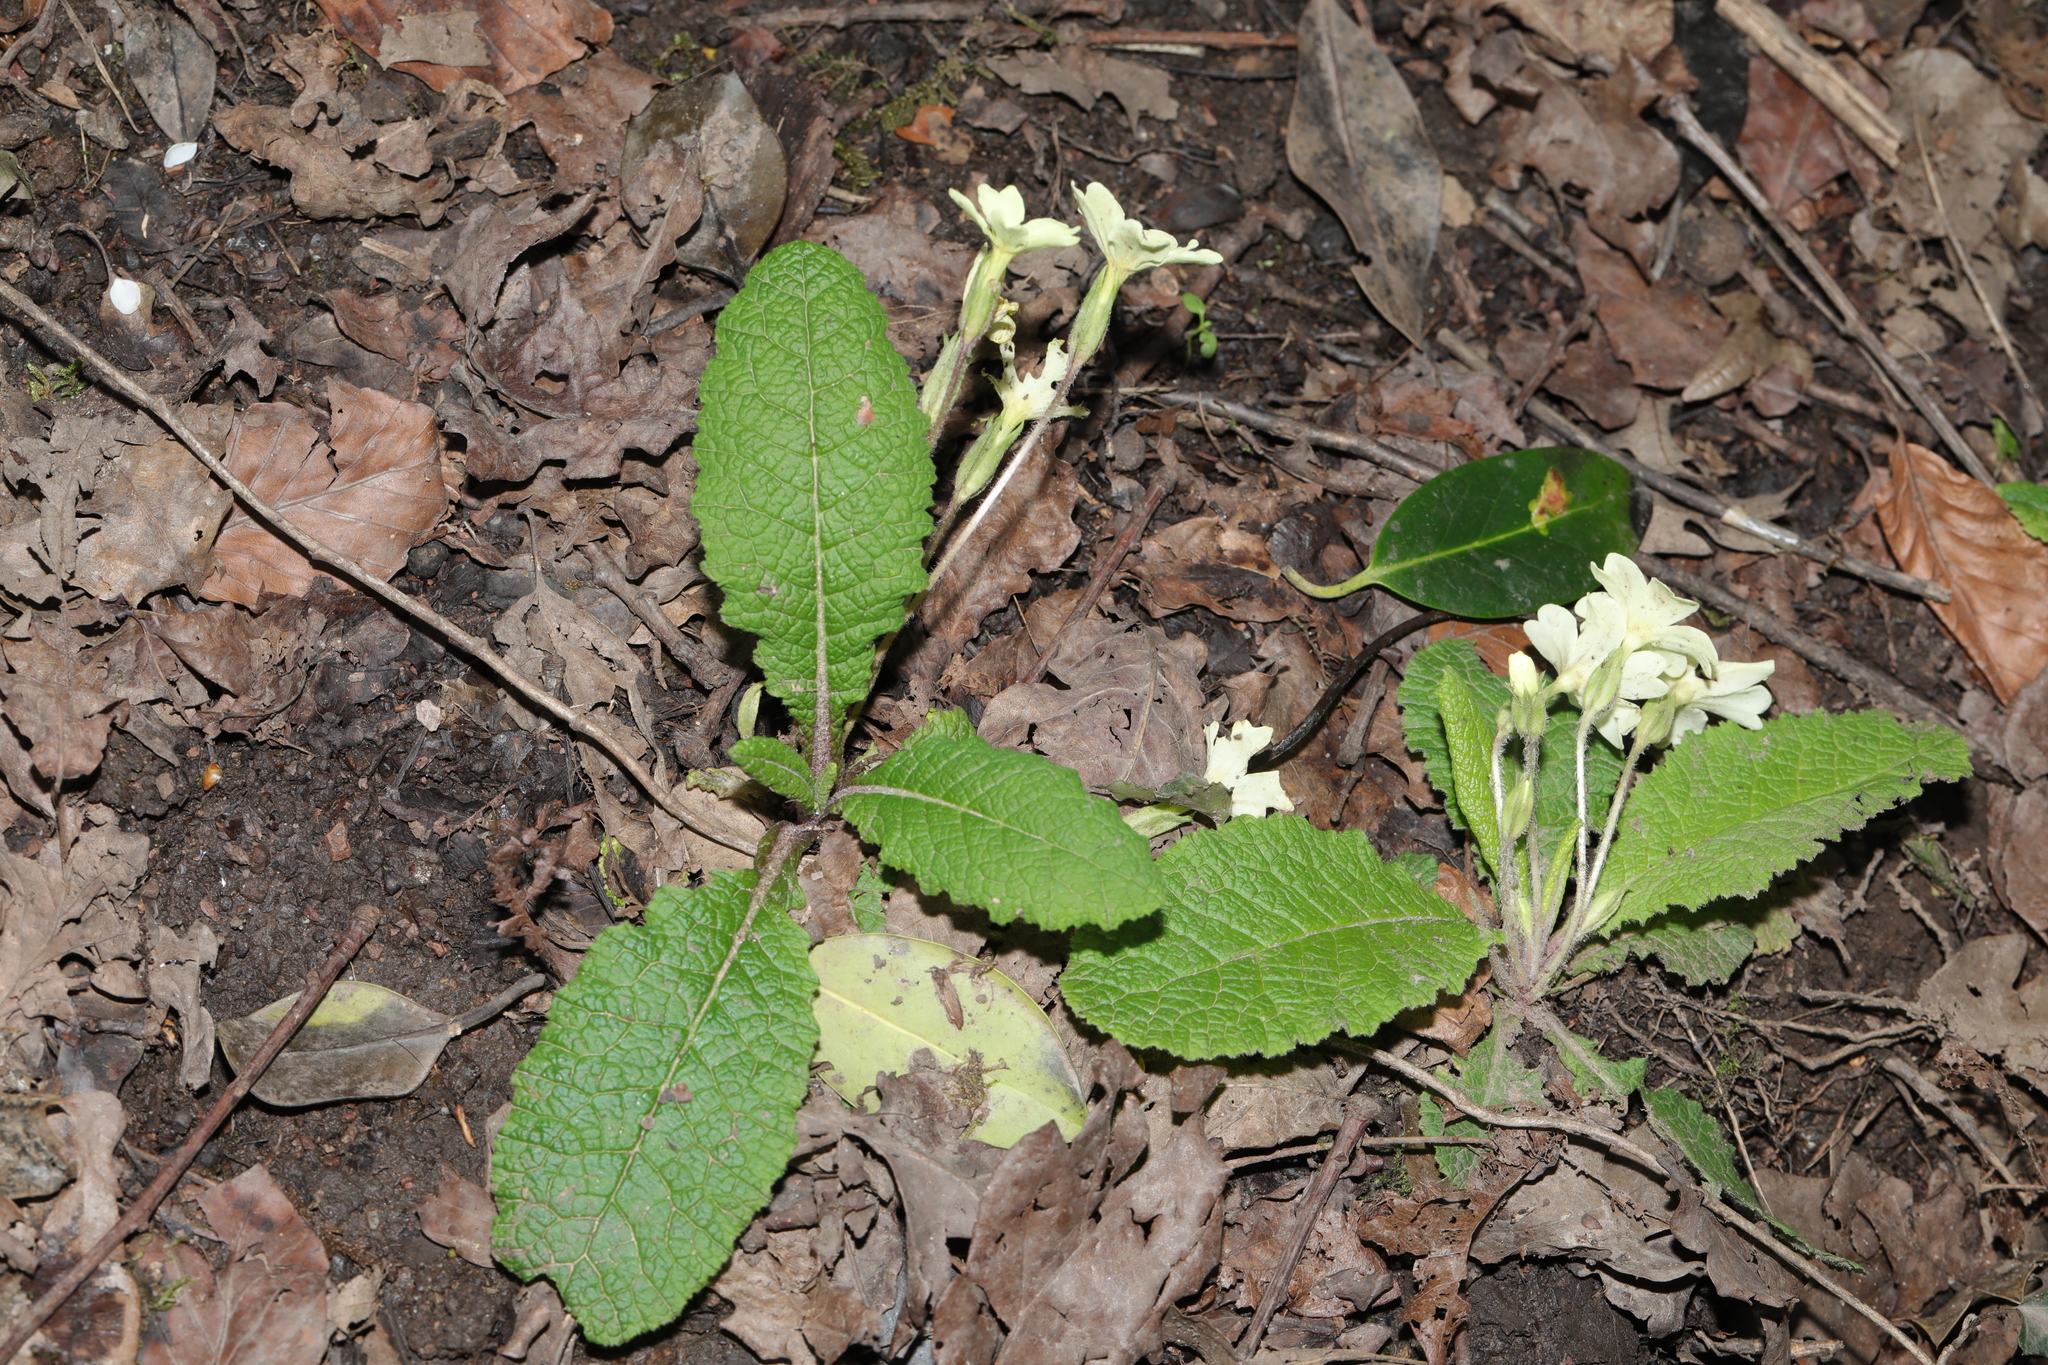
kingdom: Plantae
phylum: Tracheophyta
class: Magnoliopsida
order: Ericales
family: Primulaceae
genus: Primula
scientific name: Primula vulgaris
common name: Primrose
